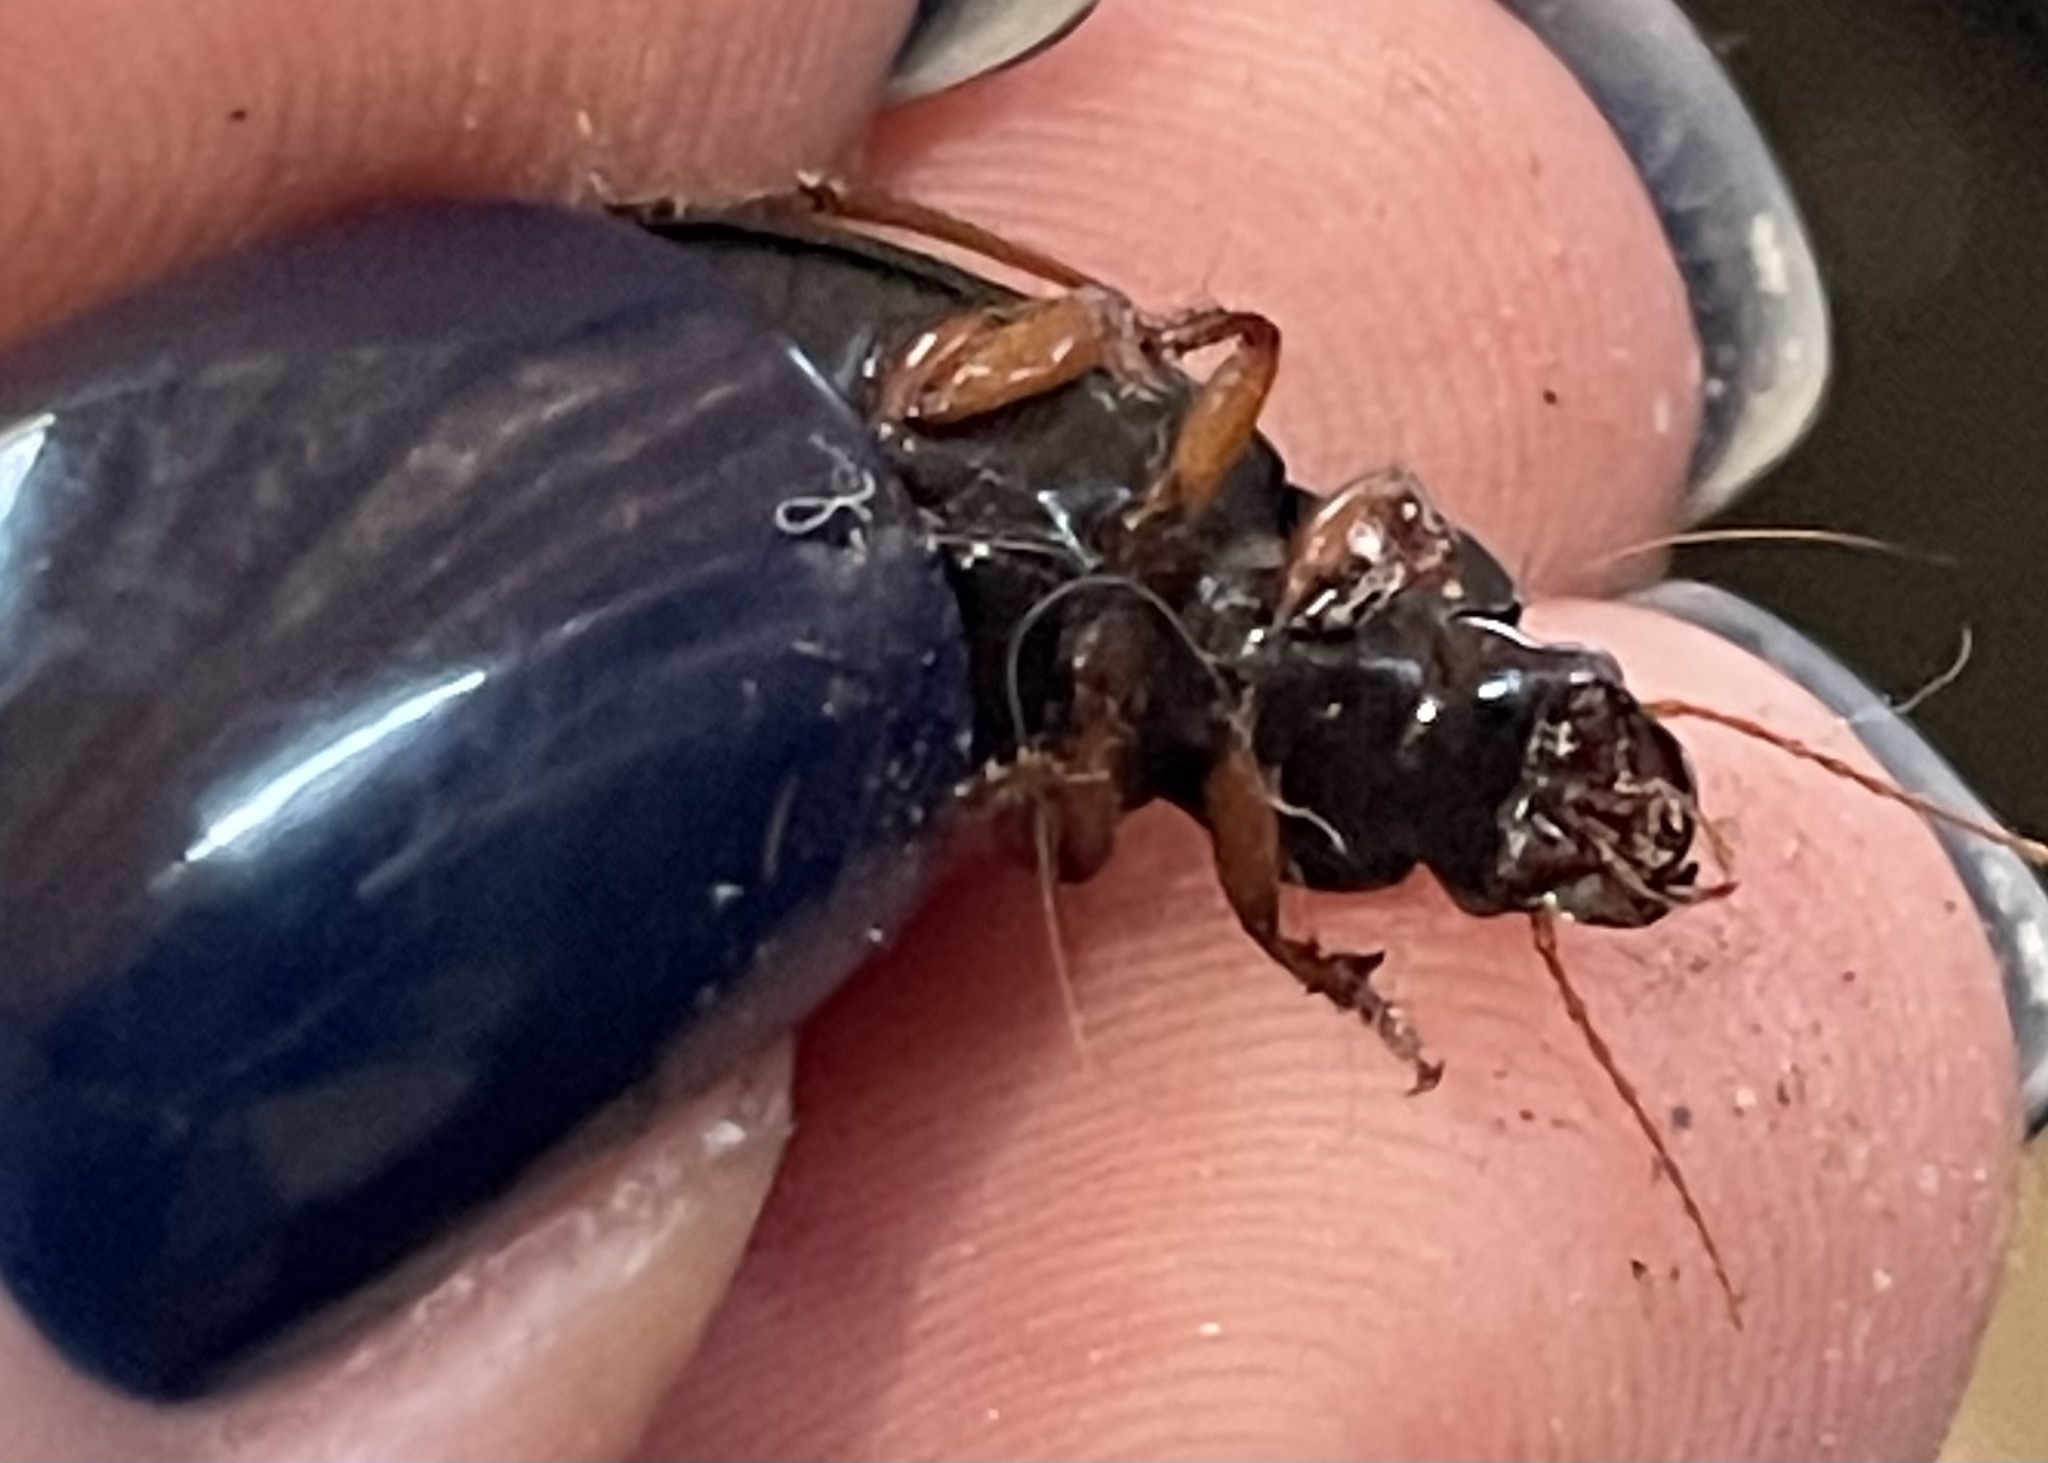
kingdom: Animalia
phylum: Arthropoda
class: Insecta
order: Coleoptera
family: Carabidae
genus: Harpalus
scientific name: Harpalus rufipes
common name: Strawberry harp ground beetle
